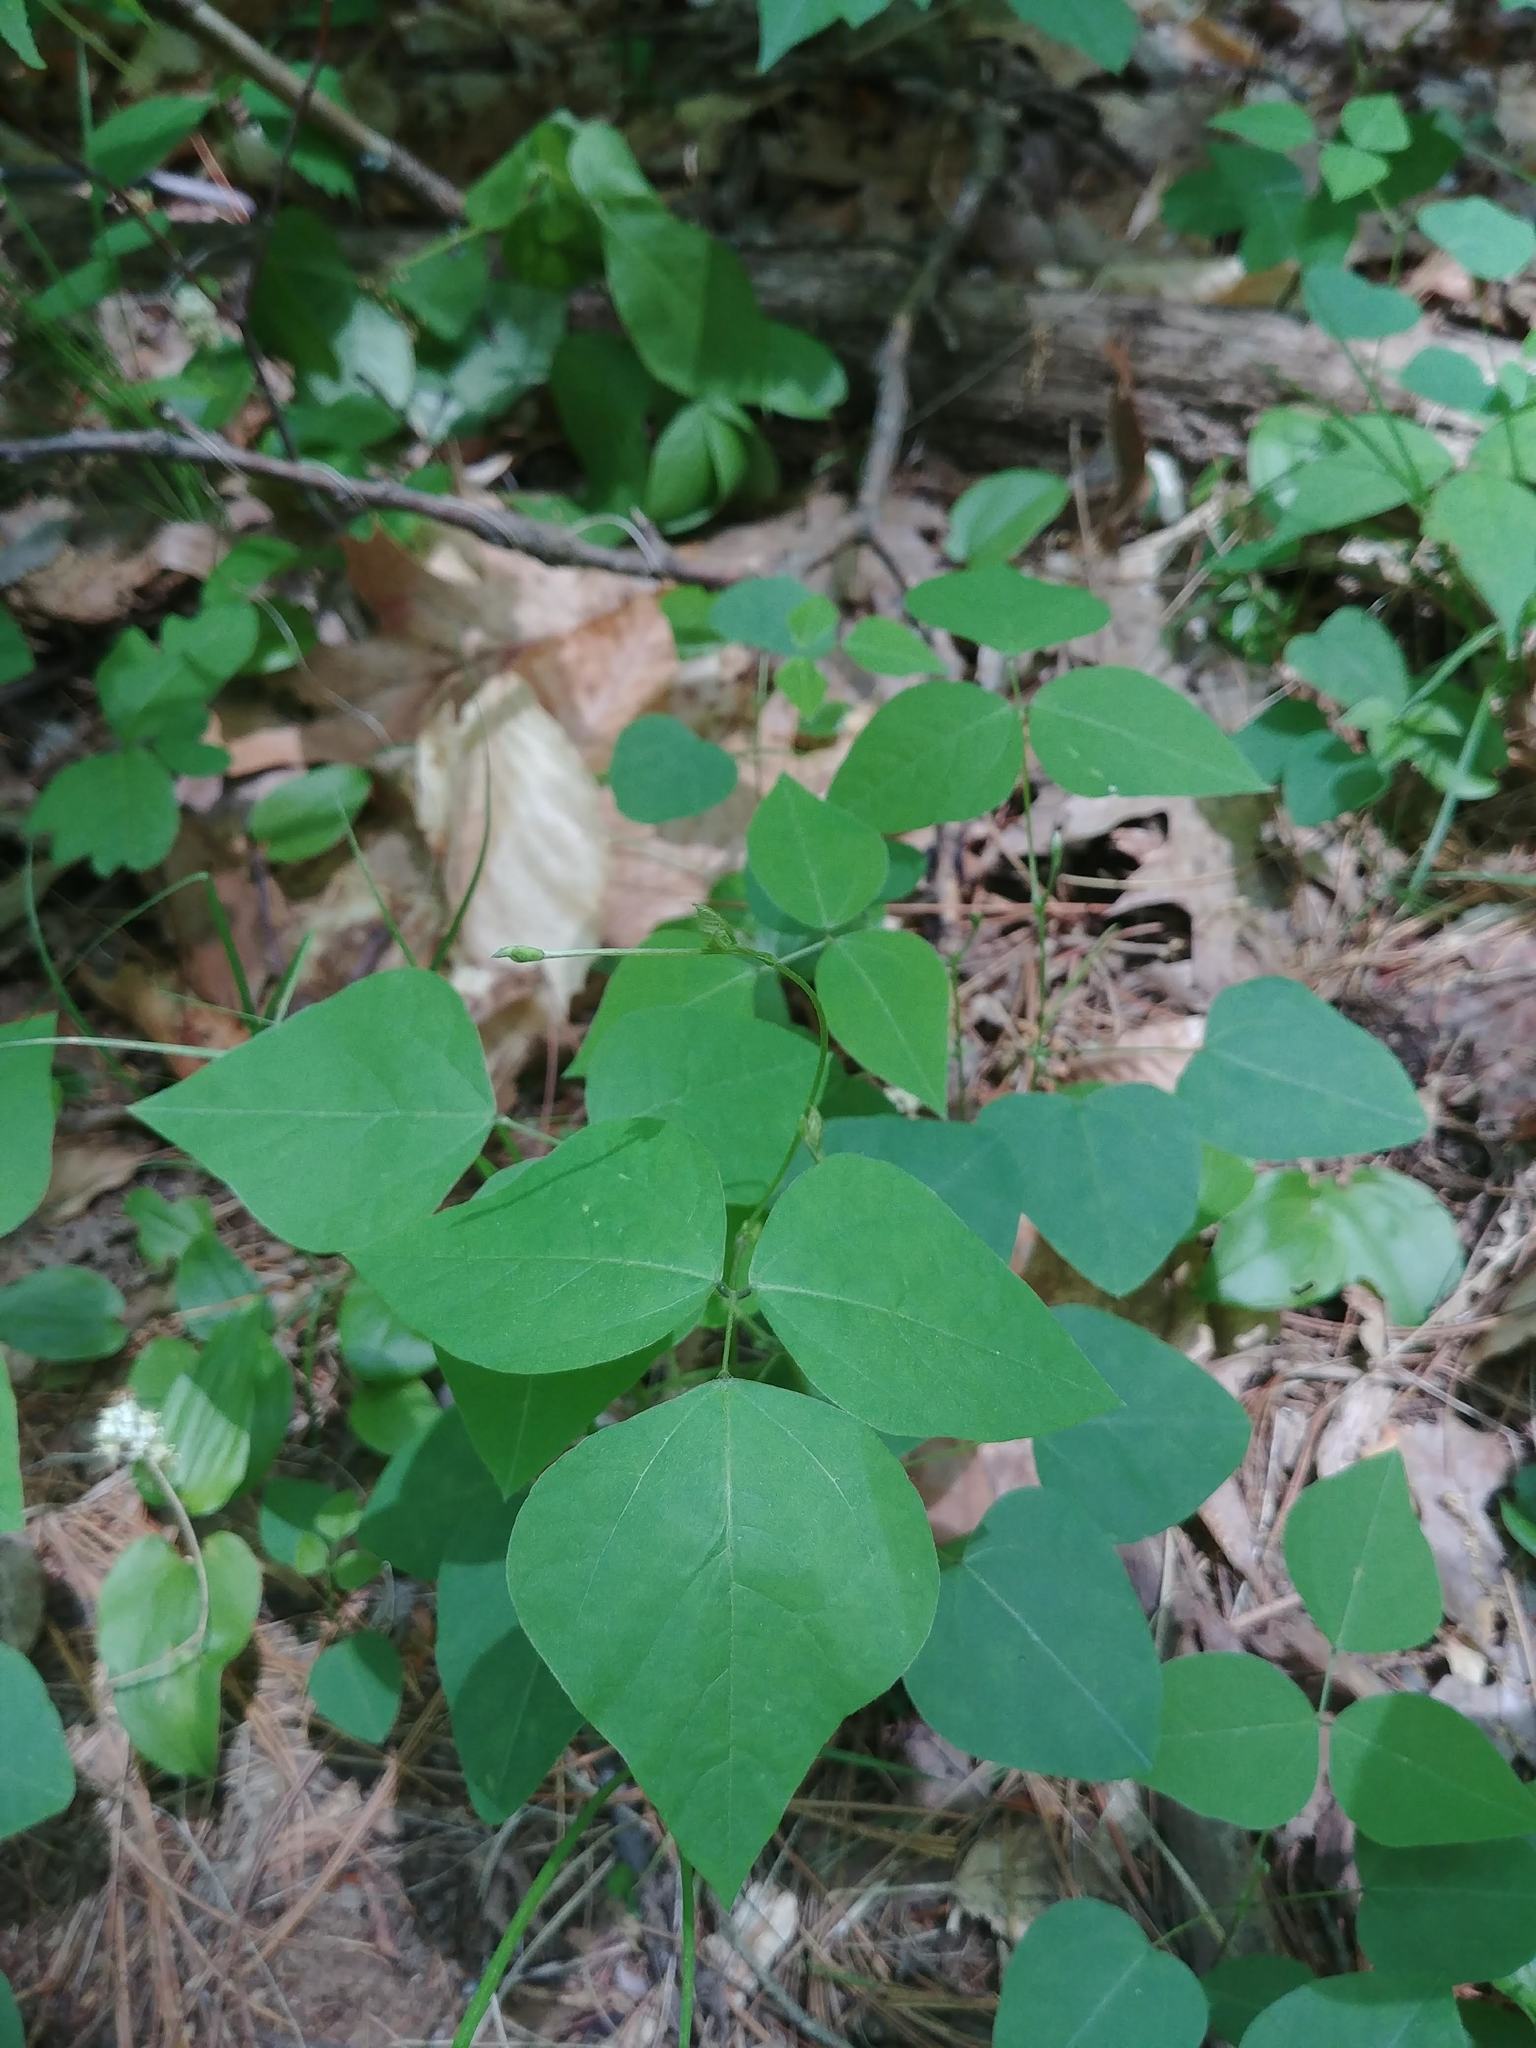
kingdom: Plantae
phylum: Tracheophyta
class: Magnoliopsida
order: Fabales
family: Fabaceae
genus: Amphicarpaea
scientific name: Amphicarpaea bracteata
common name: American hog peanut
